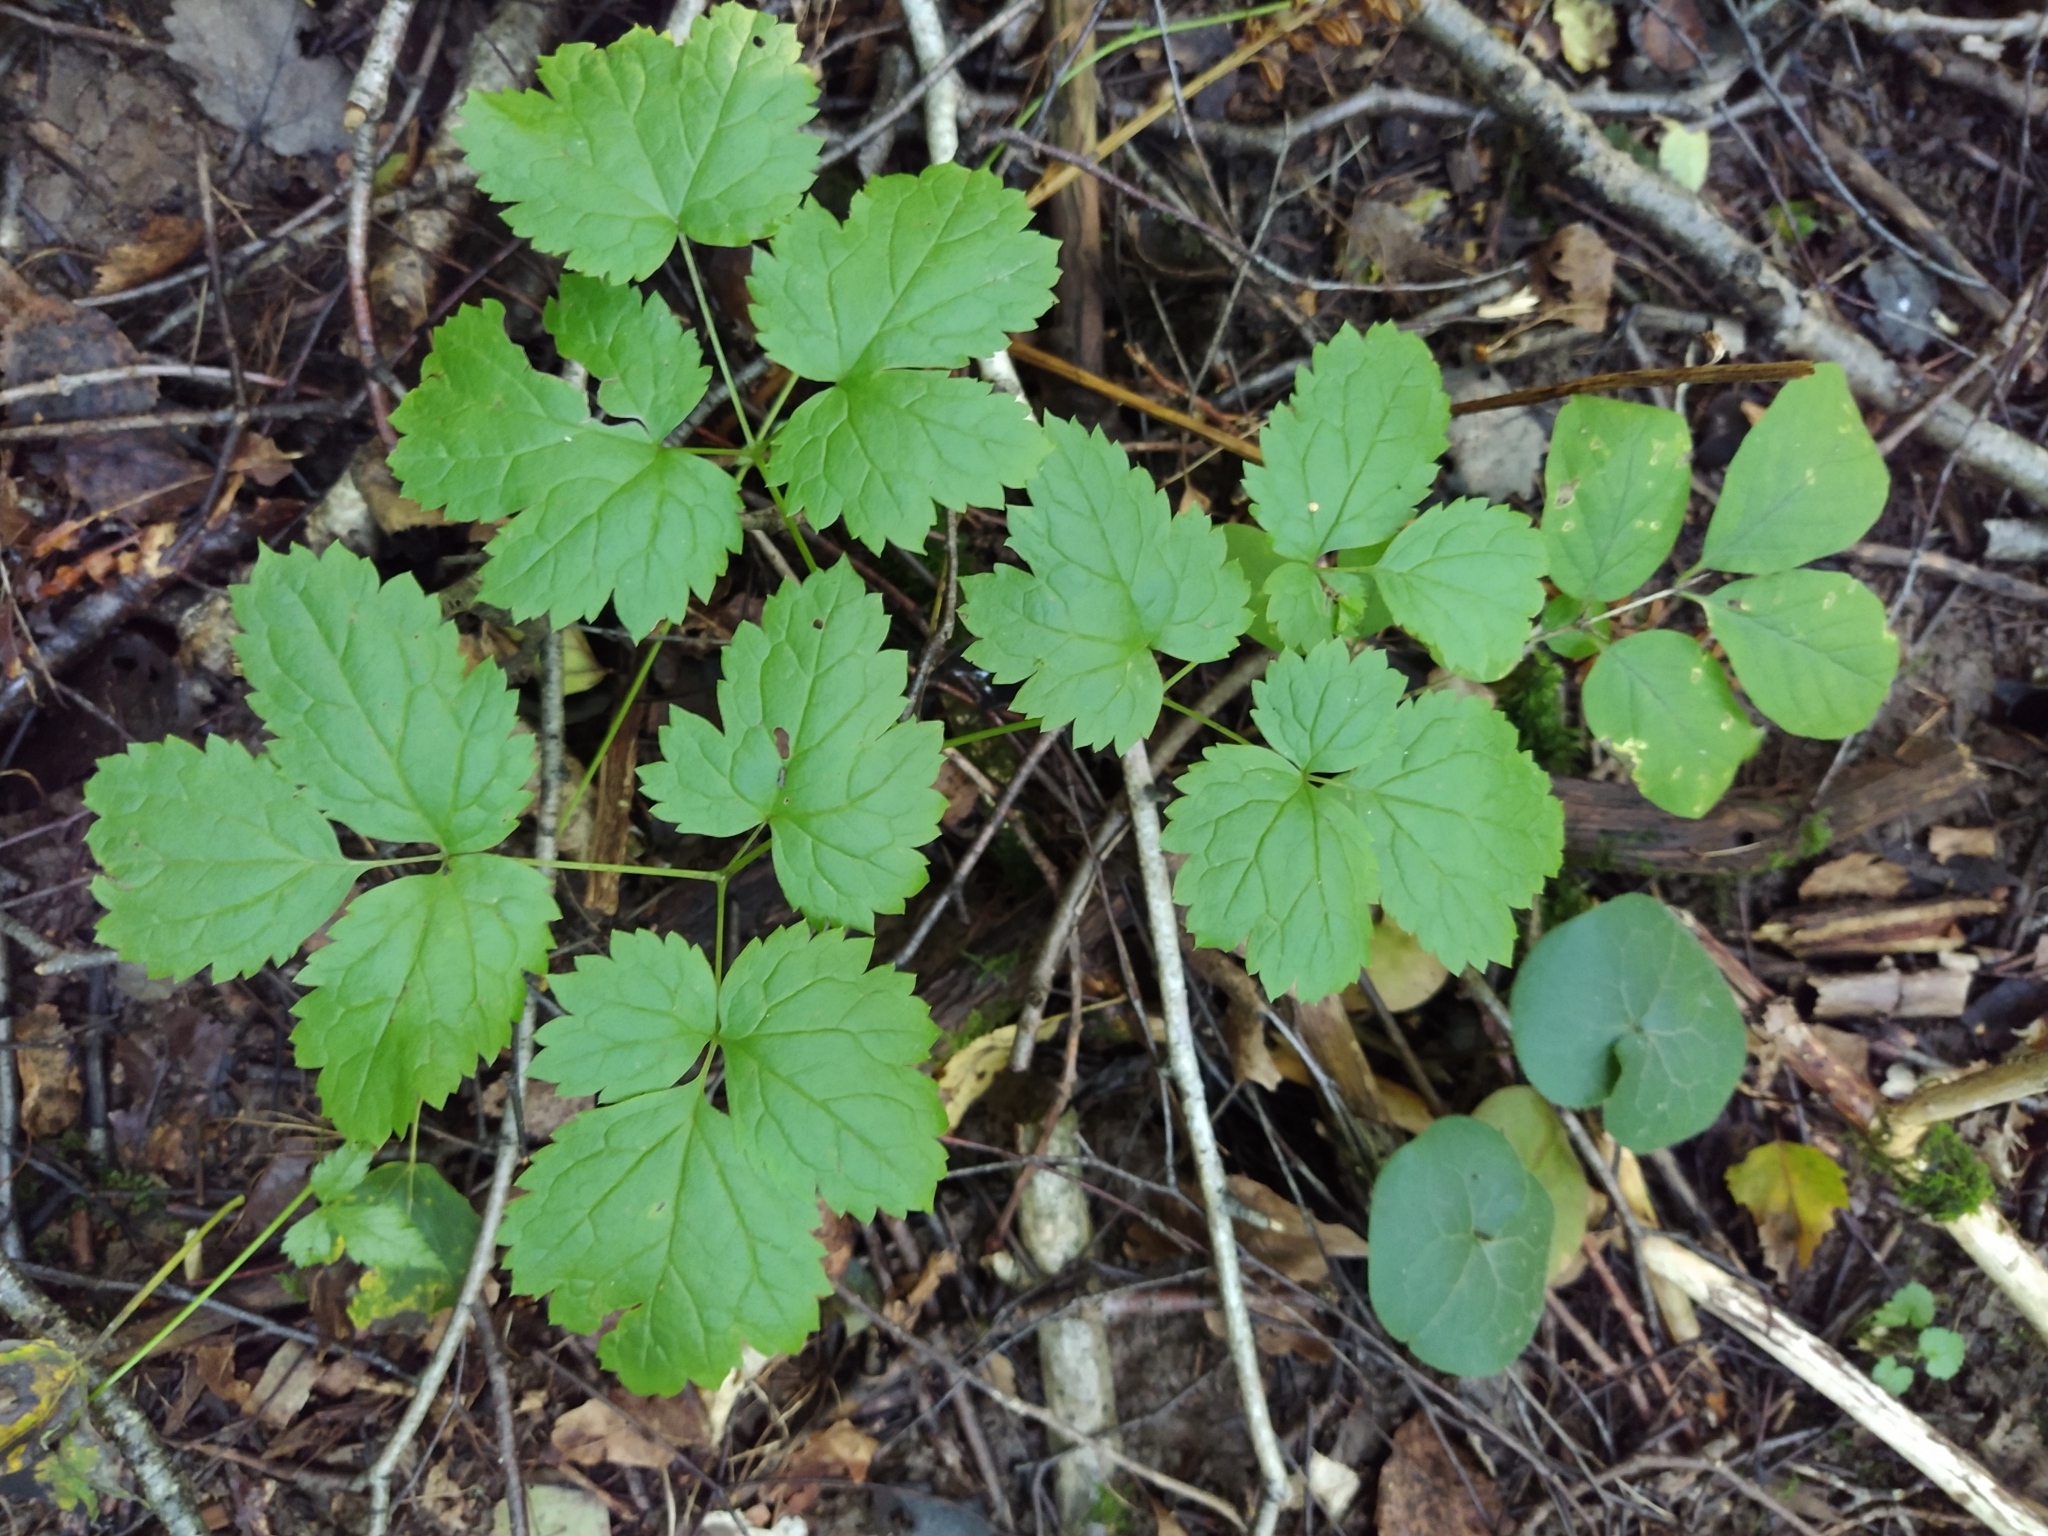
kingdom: Plantae
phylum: Tracheophyta
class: Magnoliopsida
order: Ranunculales
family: Ranunculaceae
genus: Actaea
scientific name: Actaea spicata
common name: Baneberry
